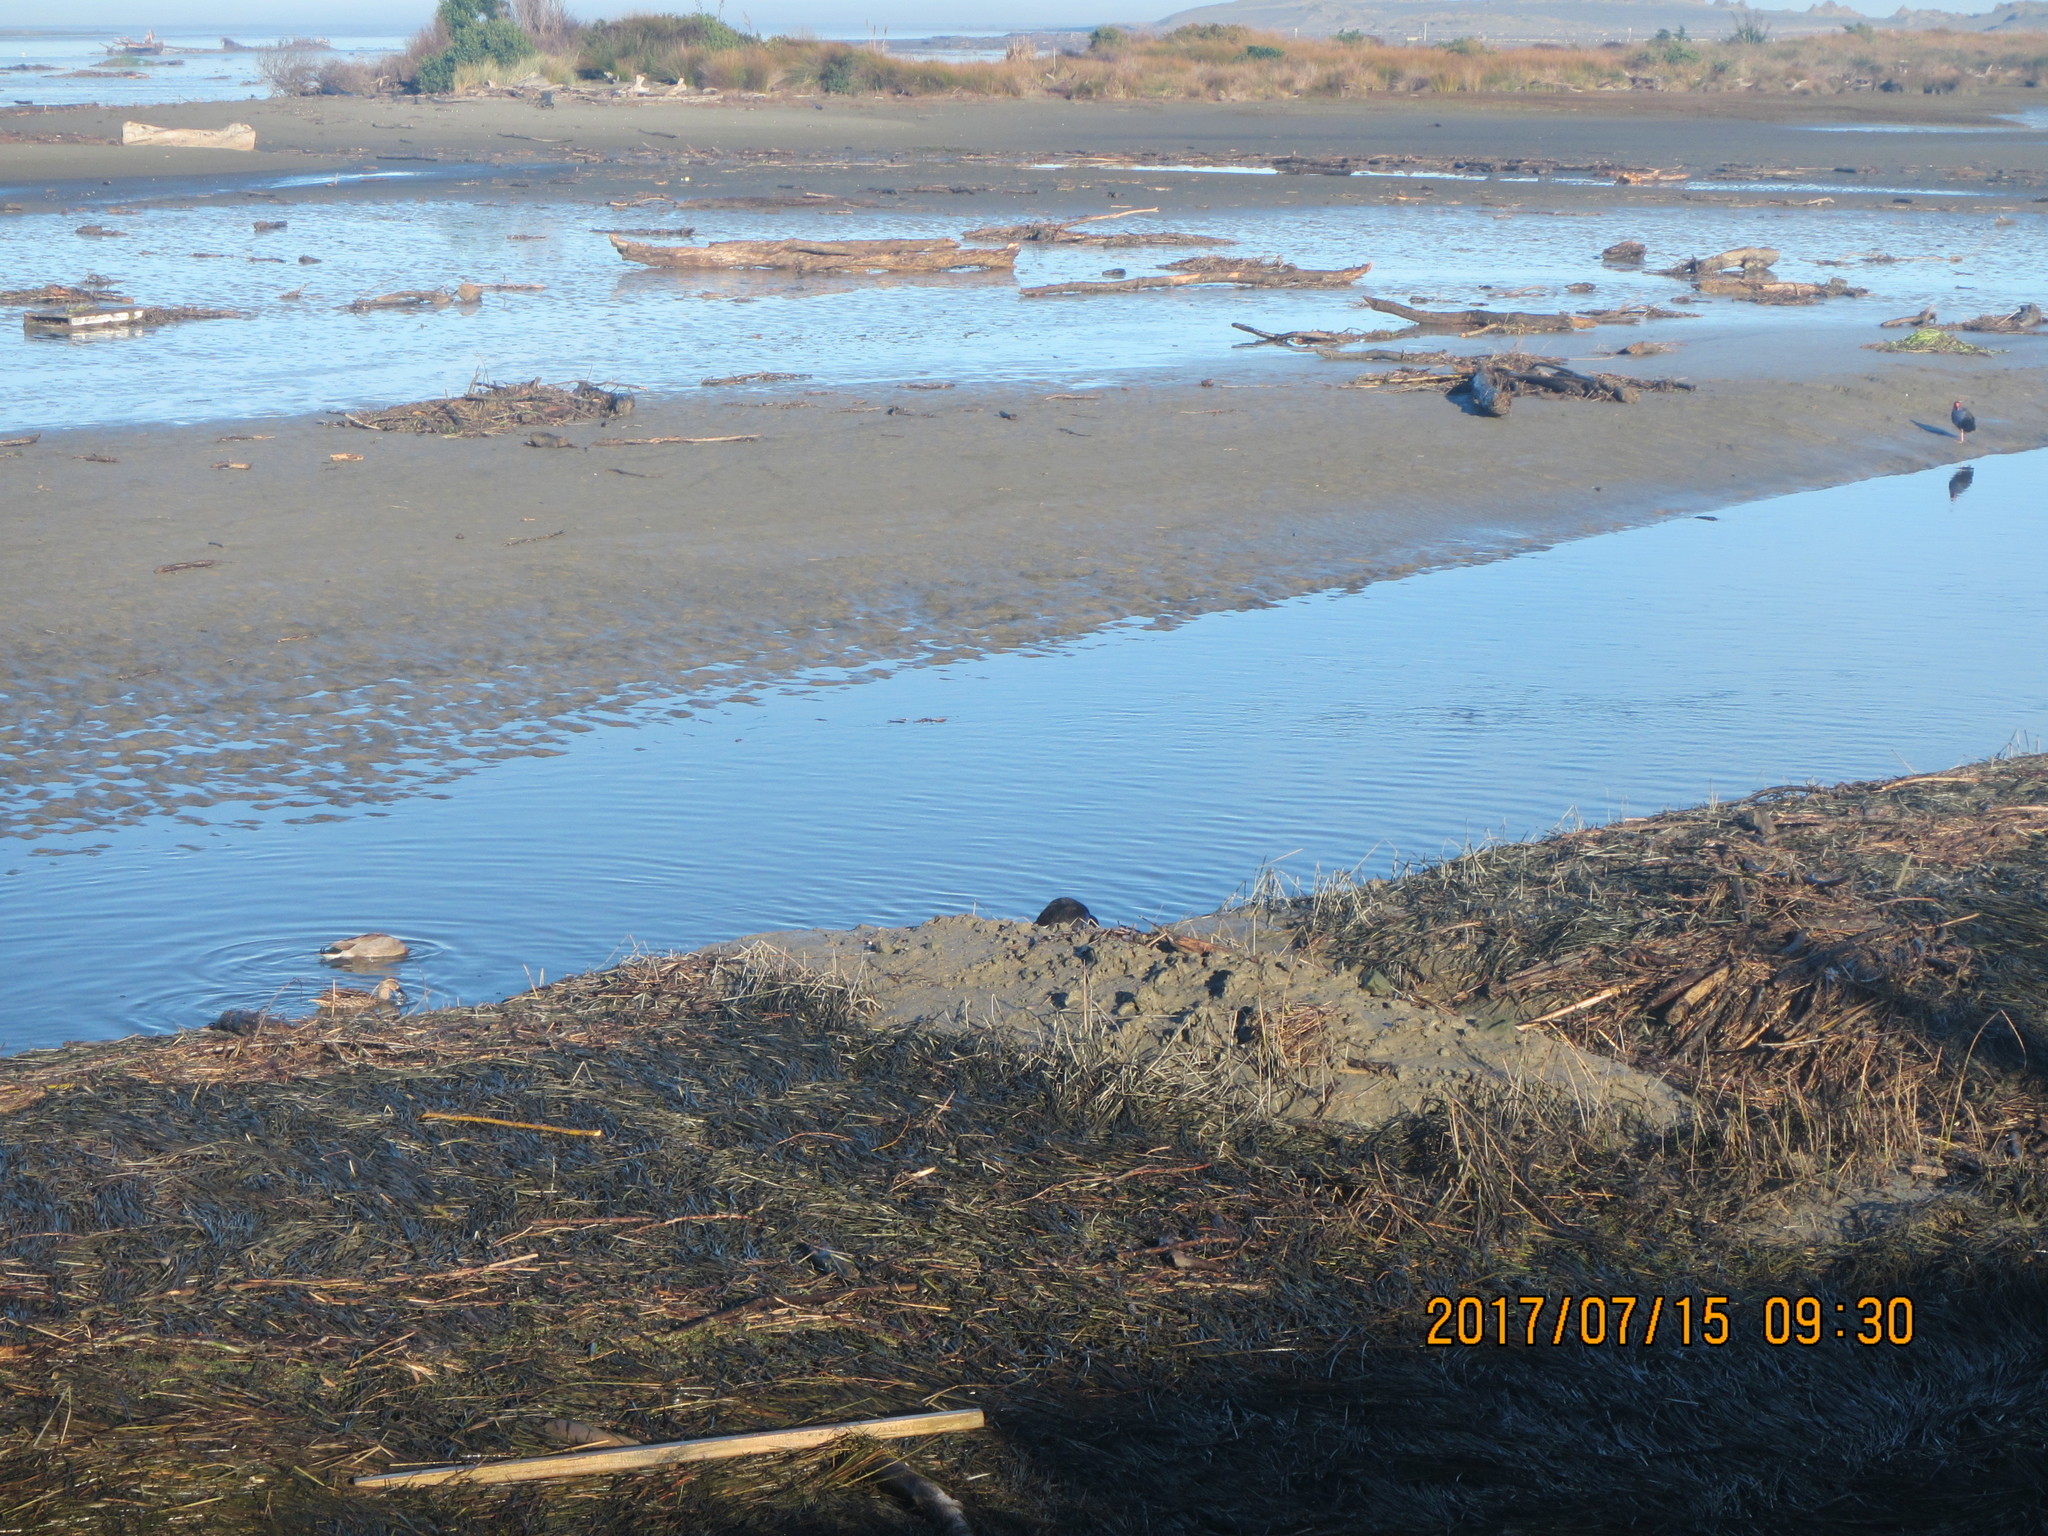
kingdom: Animalia
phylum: Chordata
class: Aves
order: Gruiformes
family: Rallidae
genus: Porphyrio
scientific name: Porphyrio melanotus
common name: Australasian swamphen
